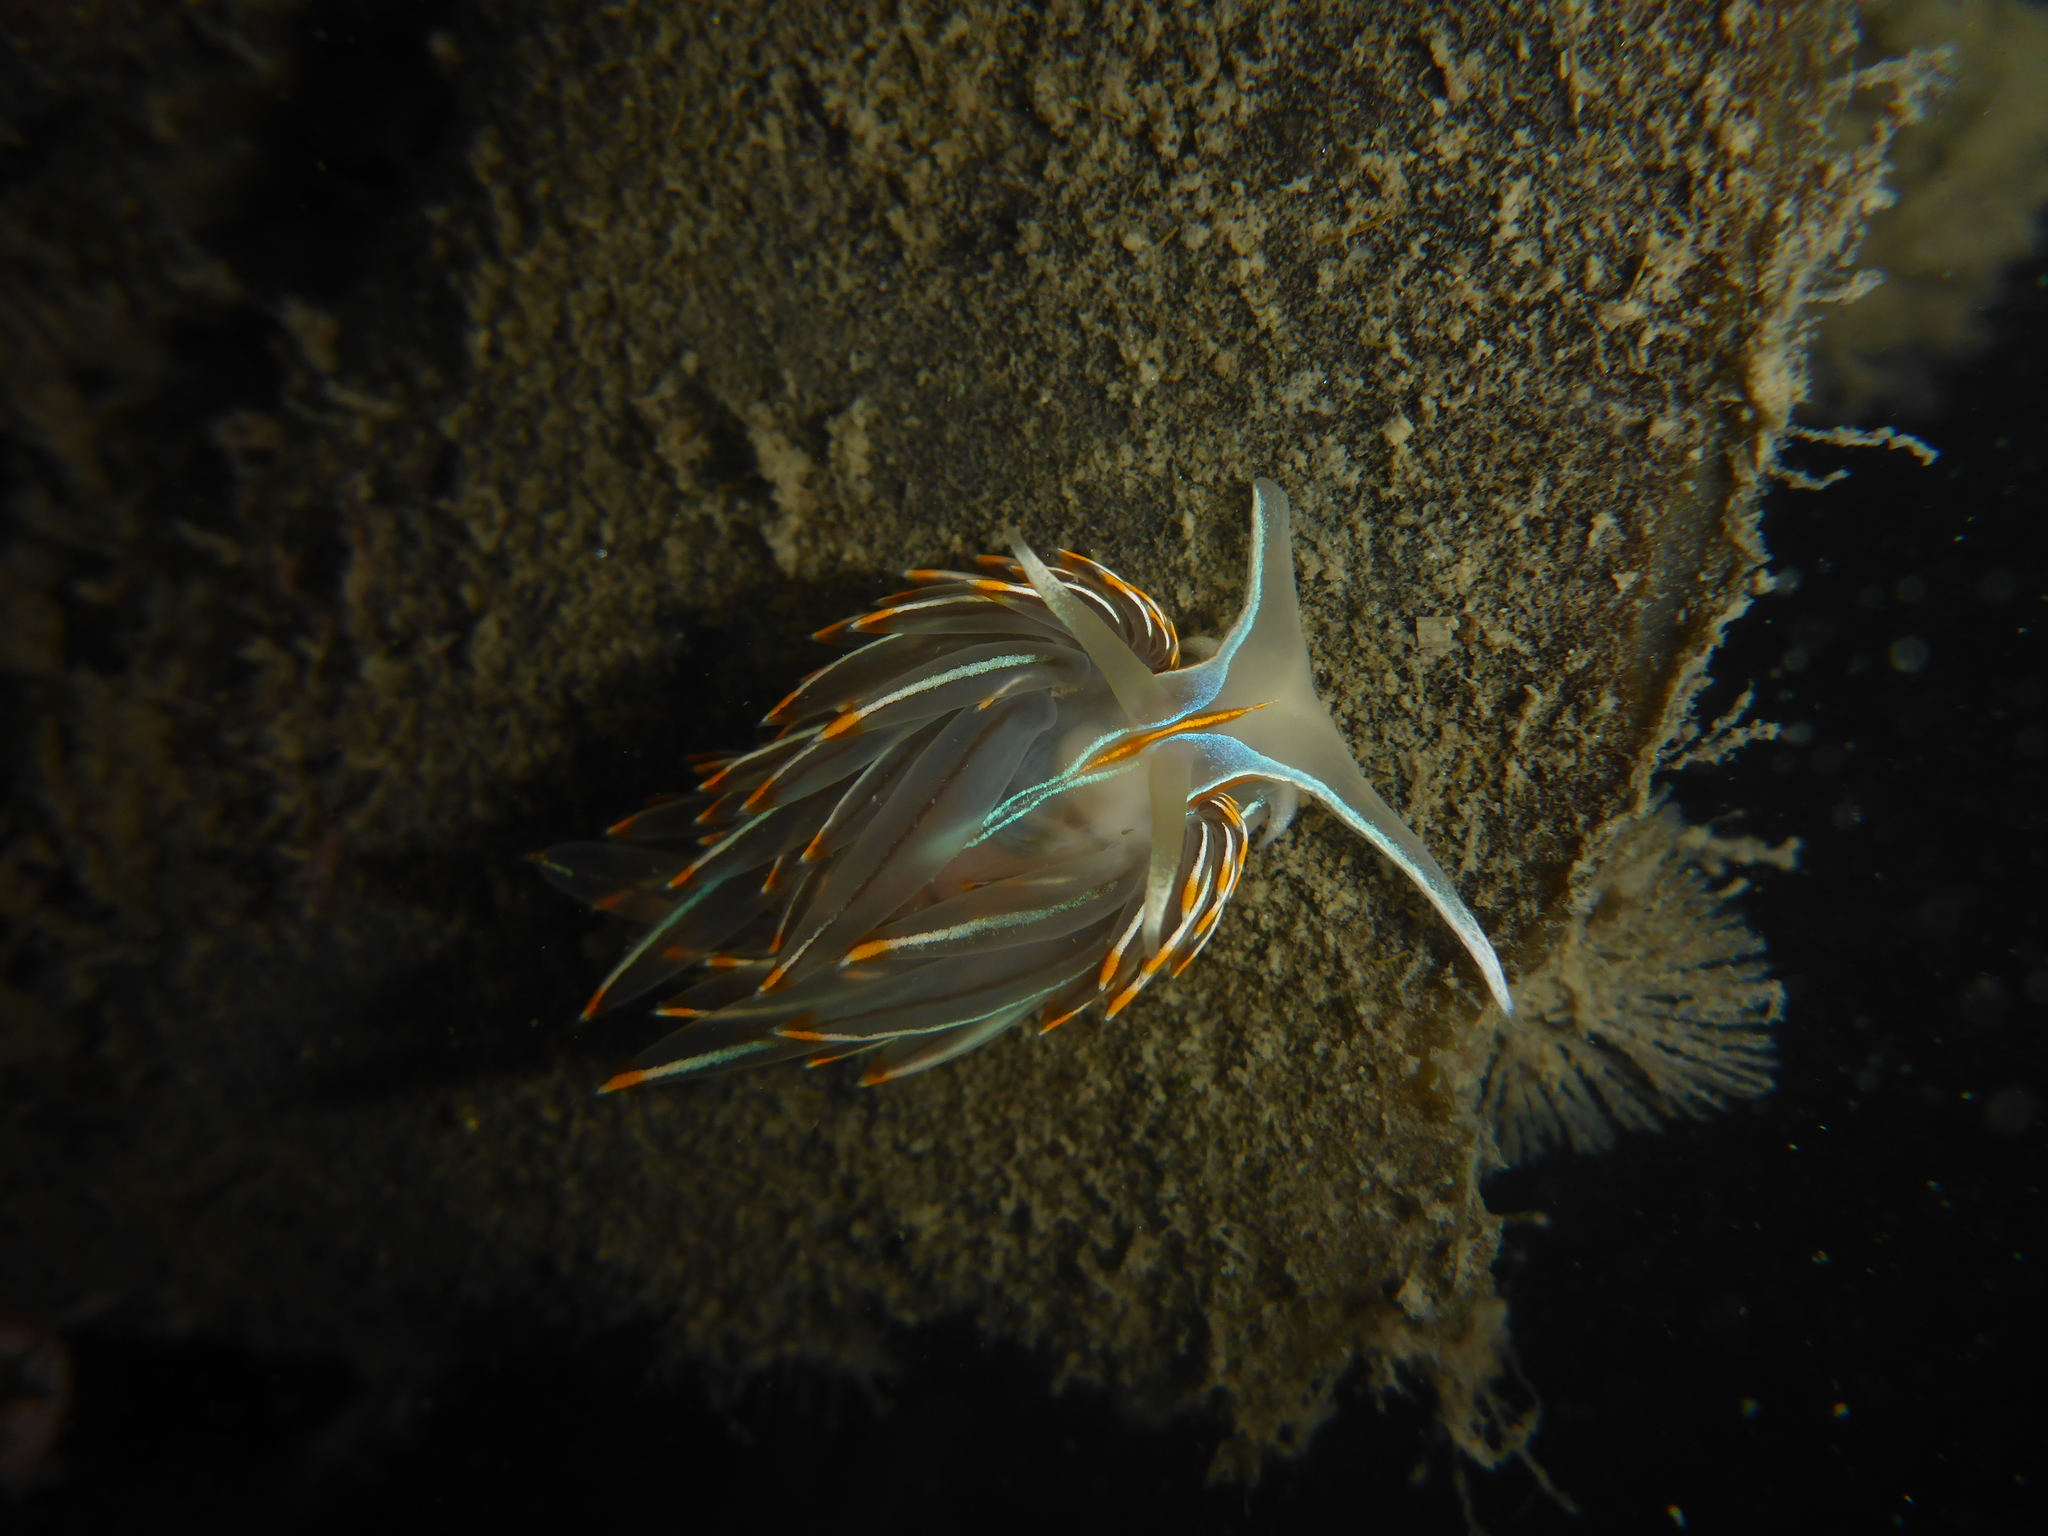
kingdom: Animalia
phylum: Mollusca
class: Gastropoda
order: Nudibranchia
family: Myrrhinidae
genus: Hermissenda
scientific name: Hermissenda crassicornis
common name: Hermissenda
